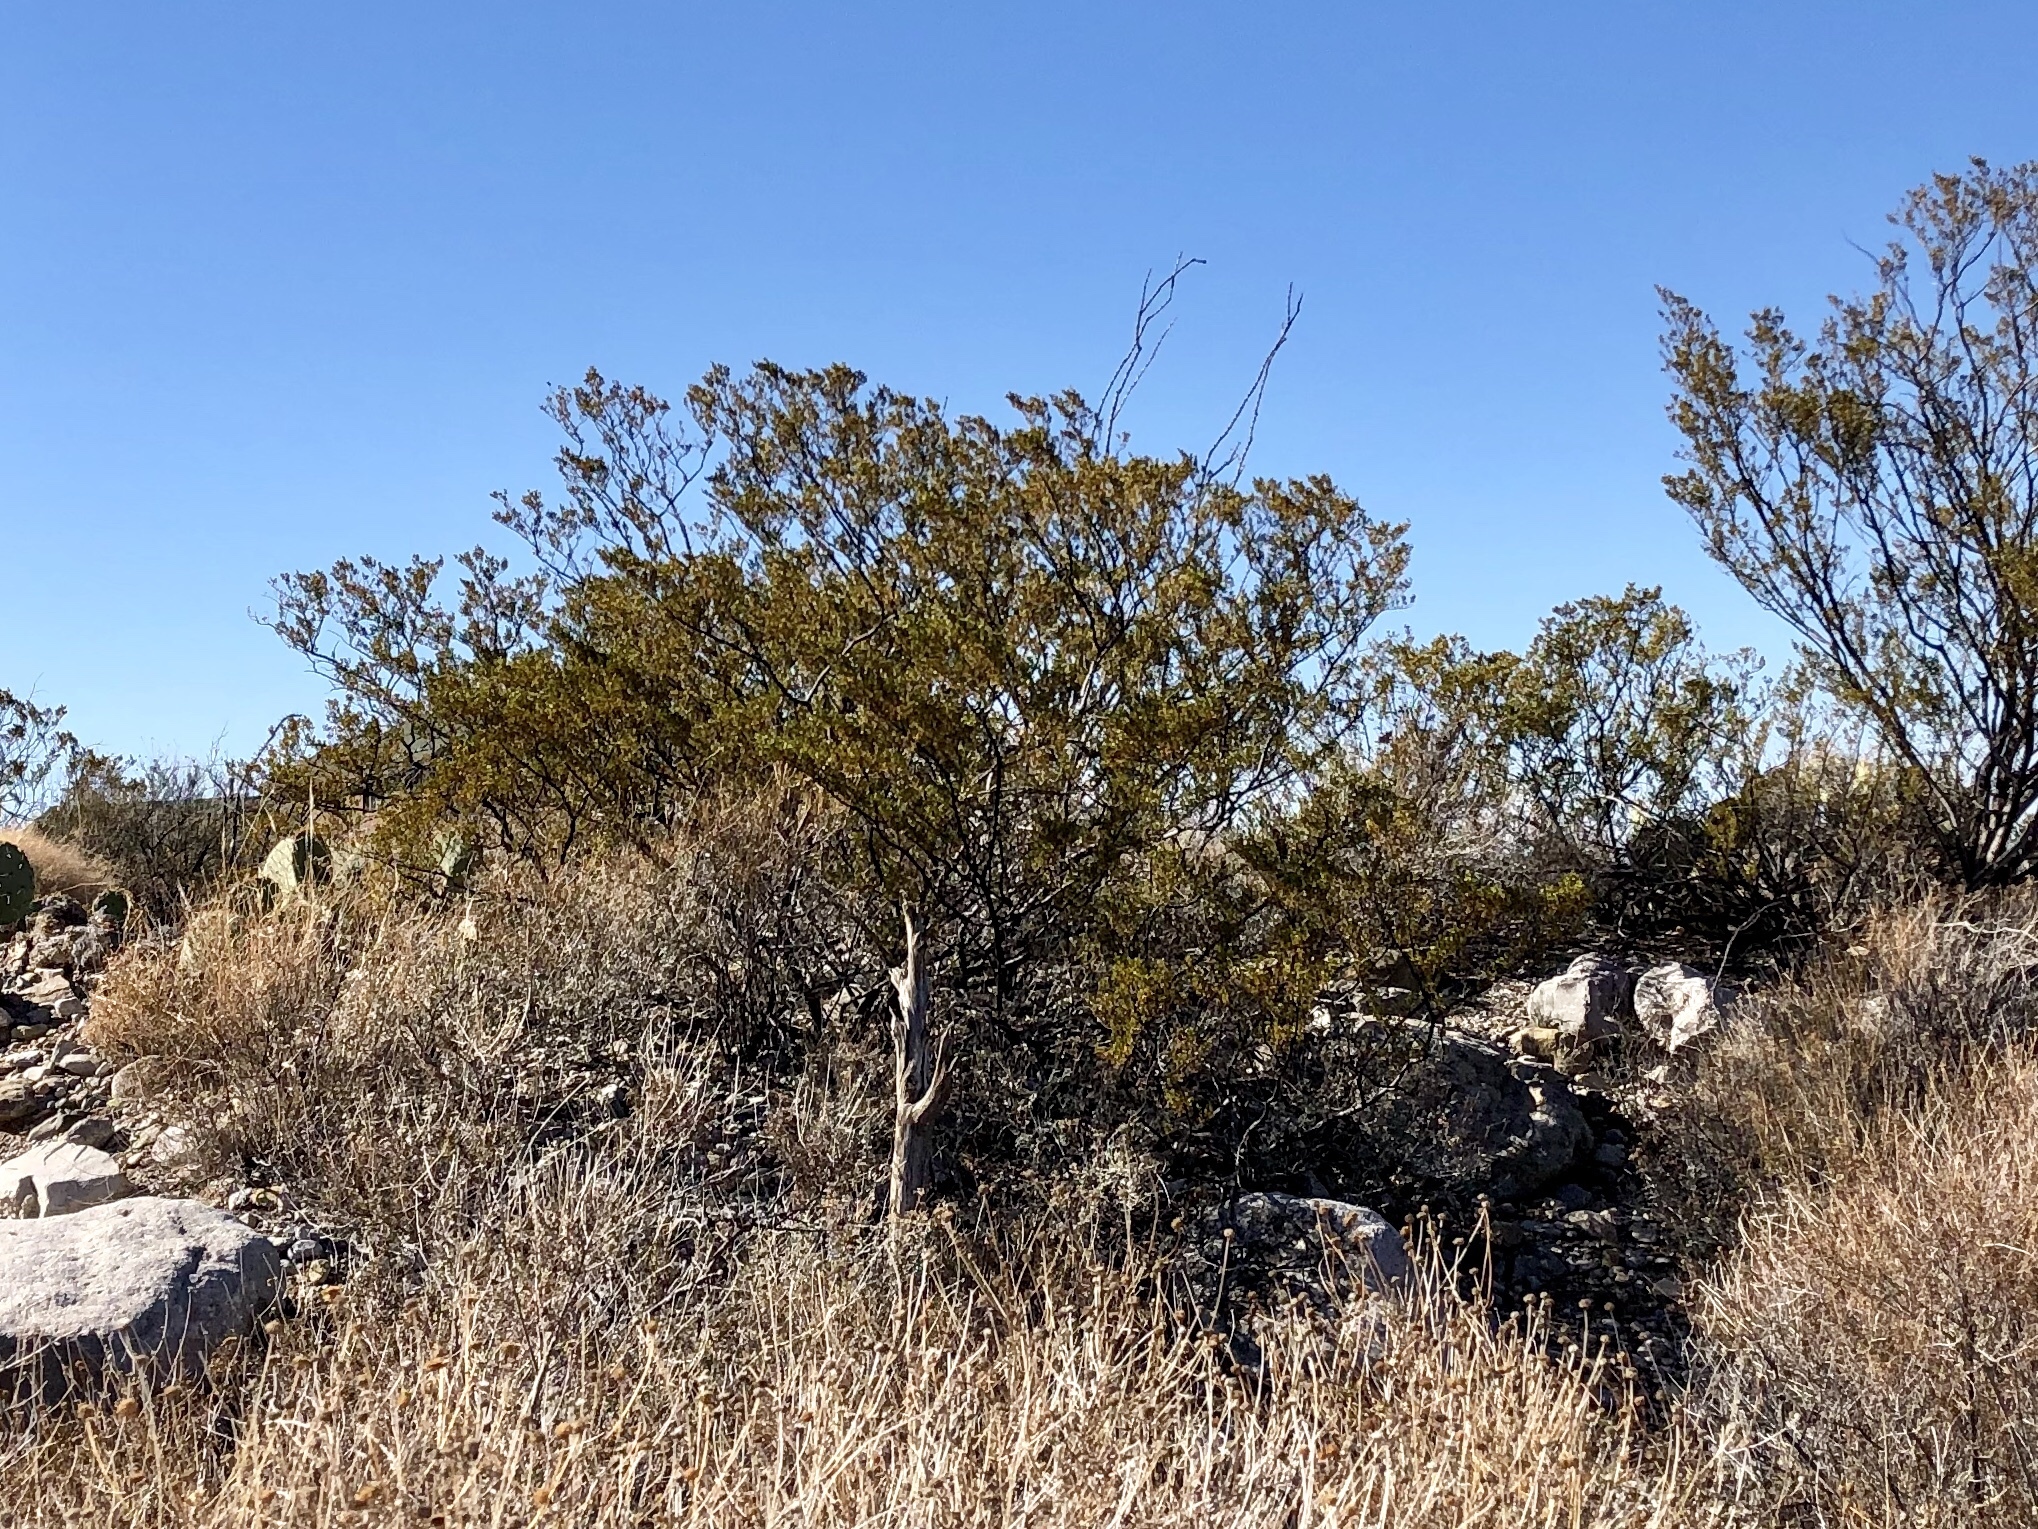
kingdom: Plantae
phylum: Tracheophyta
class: Magnoliopsida
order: Zygophyllales
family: Zygophyllaceae
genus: Larrea
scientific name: Larrea tridentata
